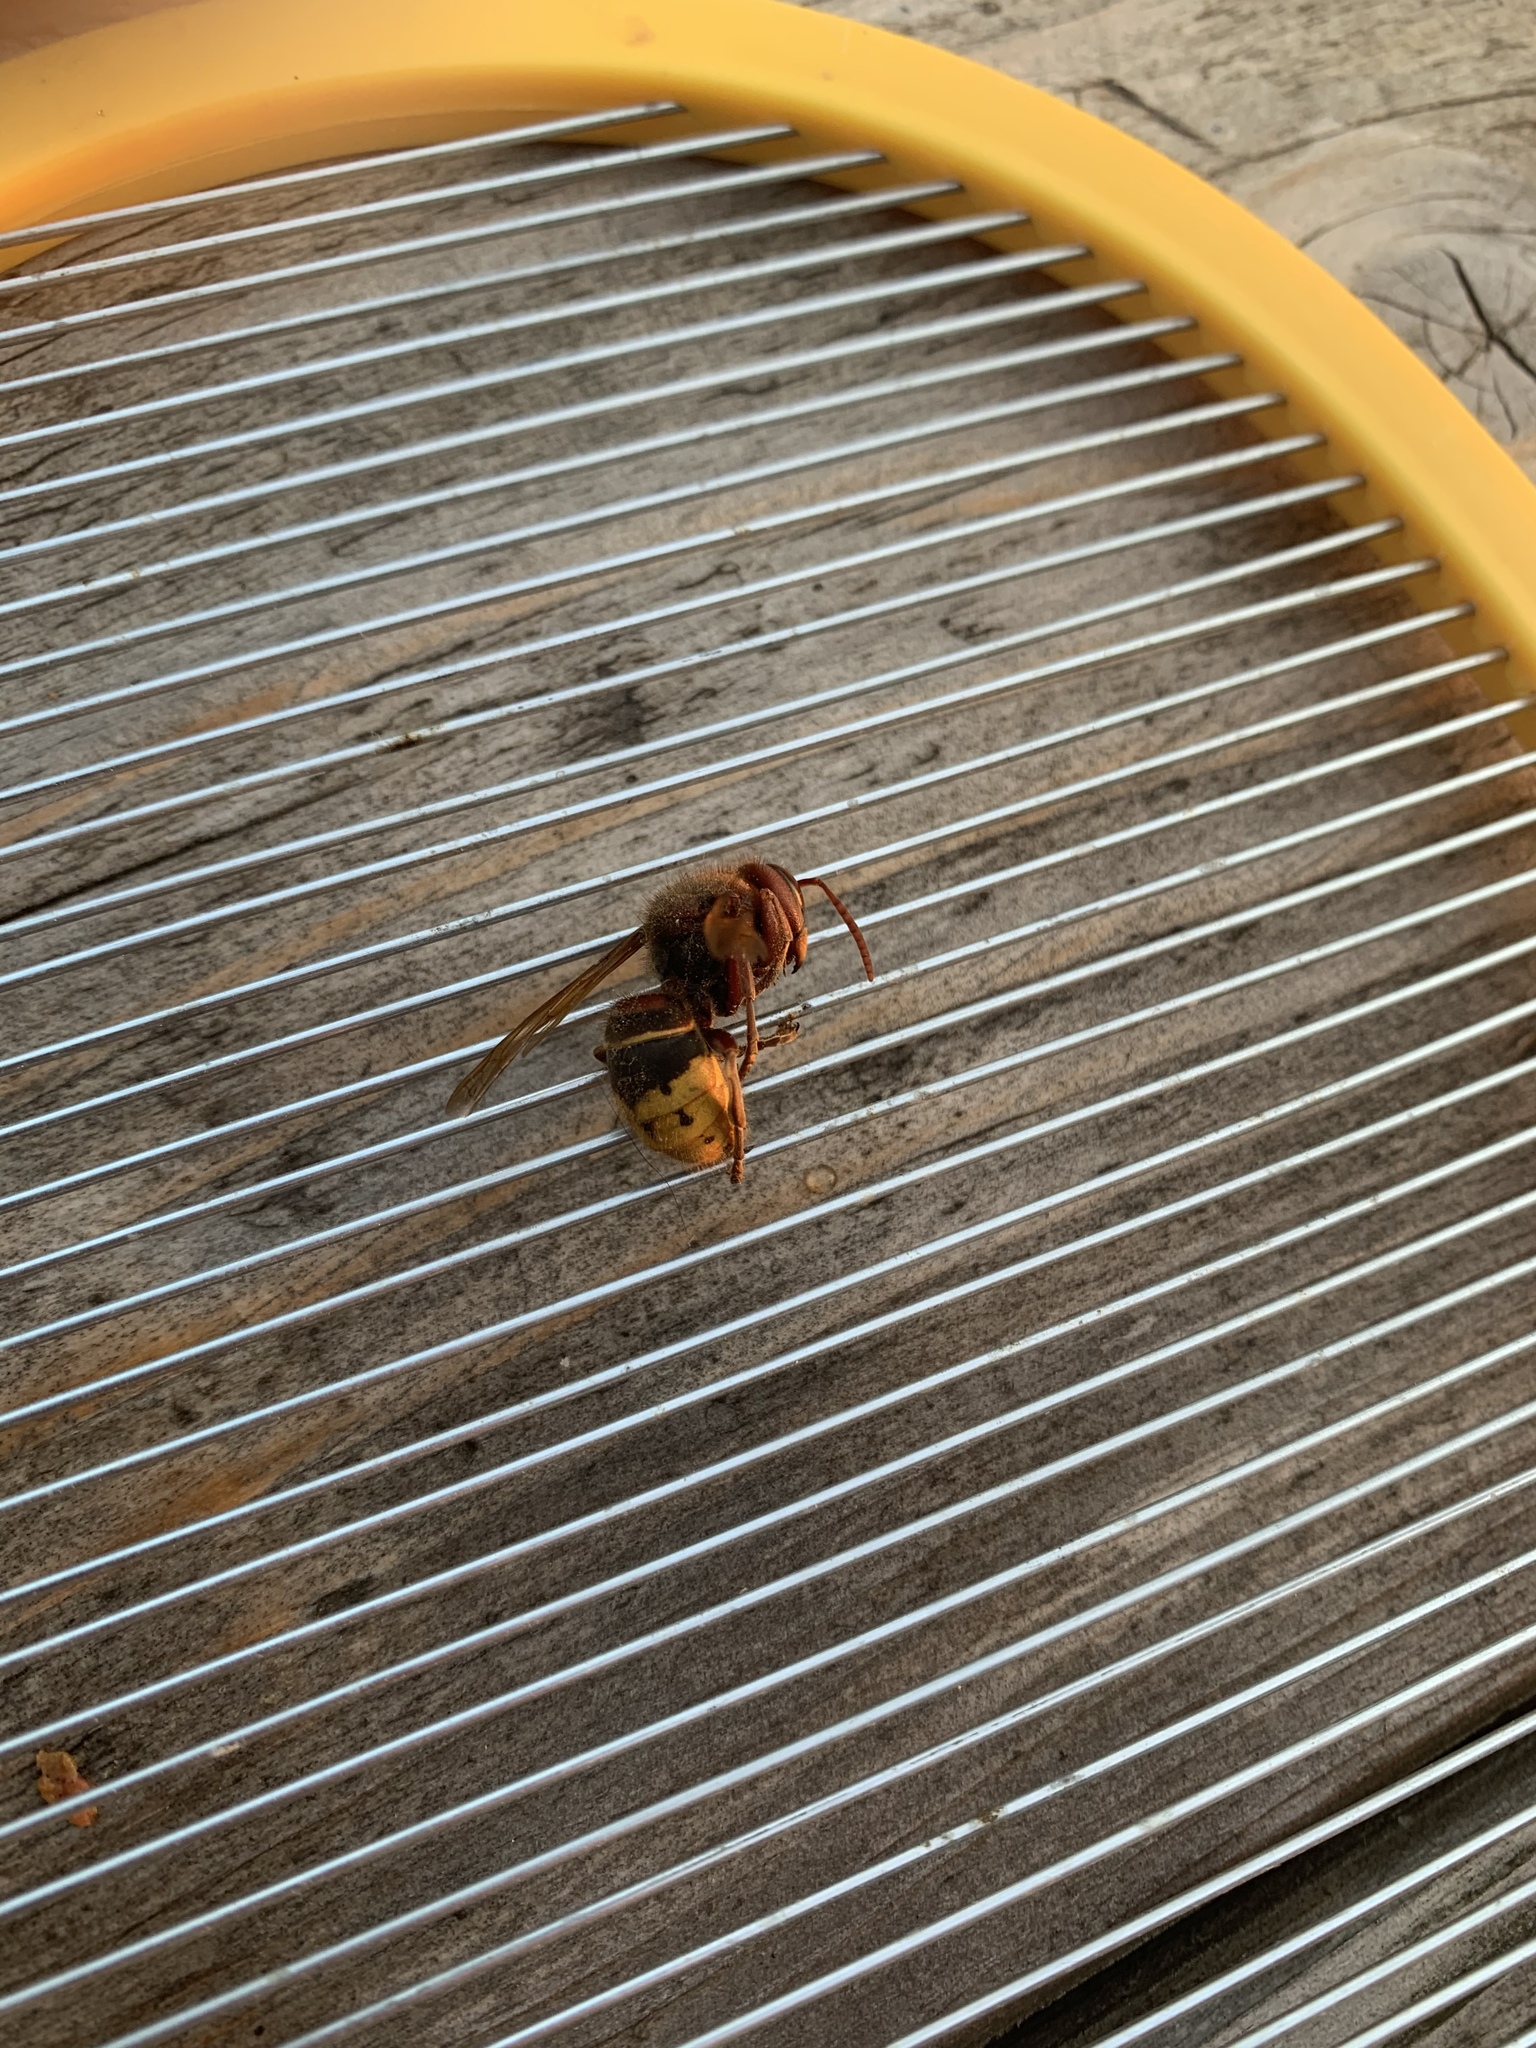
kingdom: Animalia
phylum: Arthropoda
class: Insecta
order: Hymenoptera
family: Vespidae
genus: Vespa
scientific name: Vespa crabro
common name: Hornet
